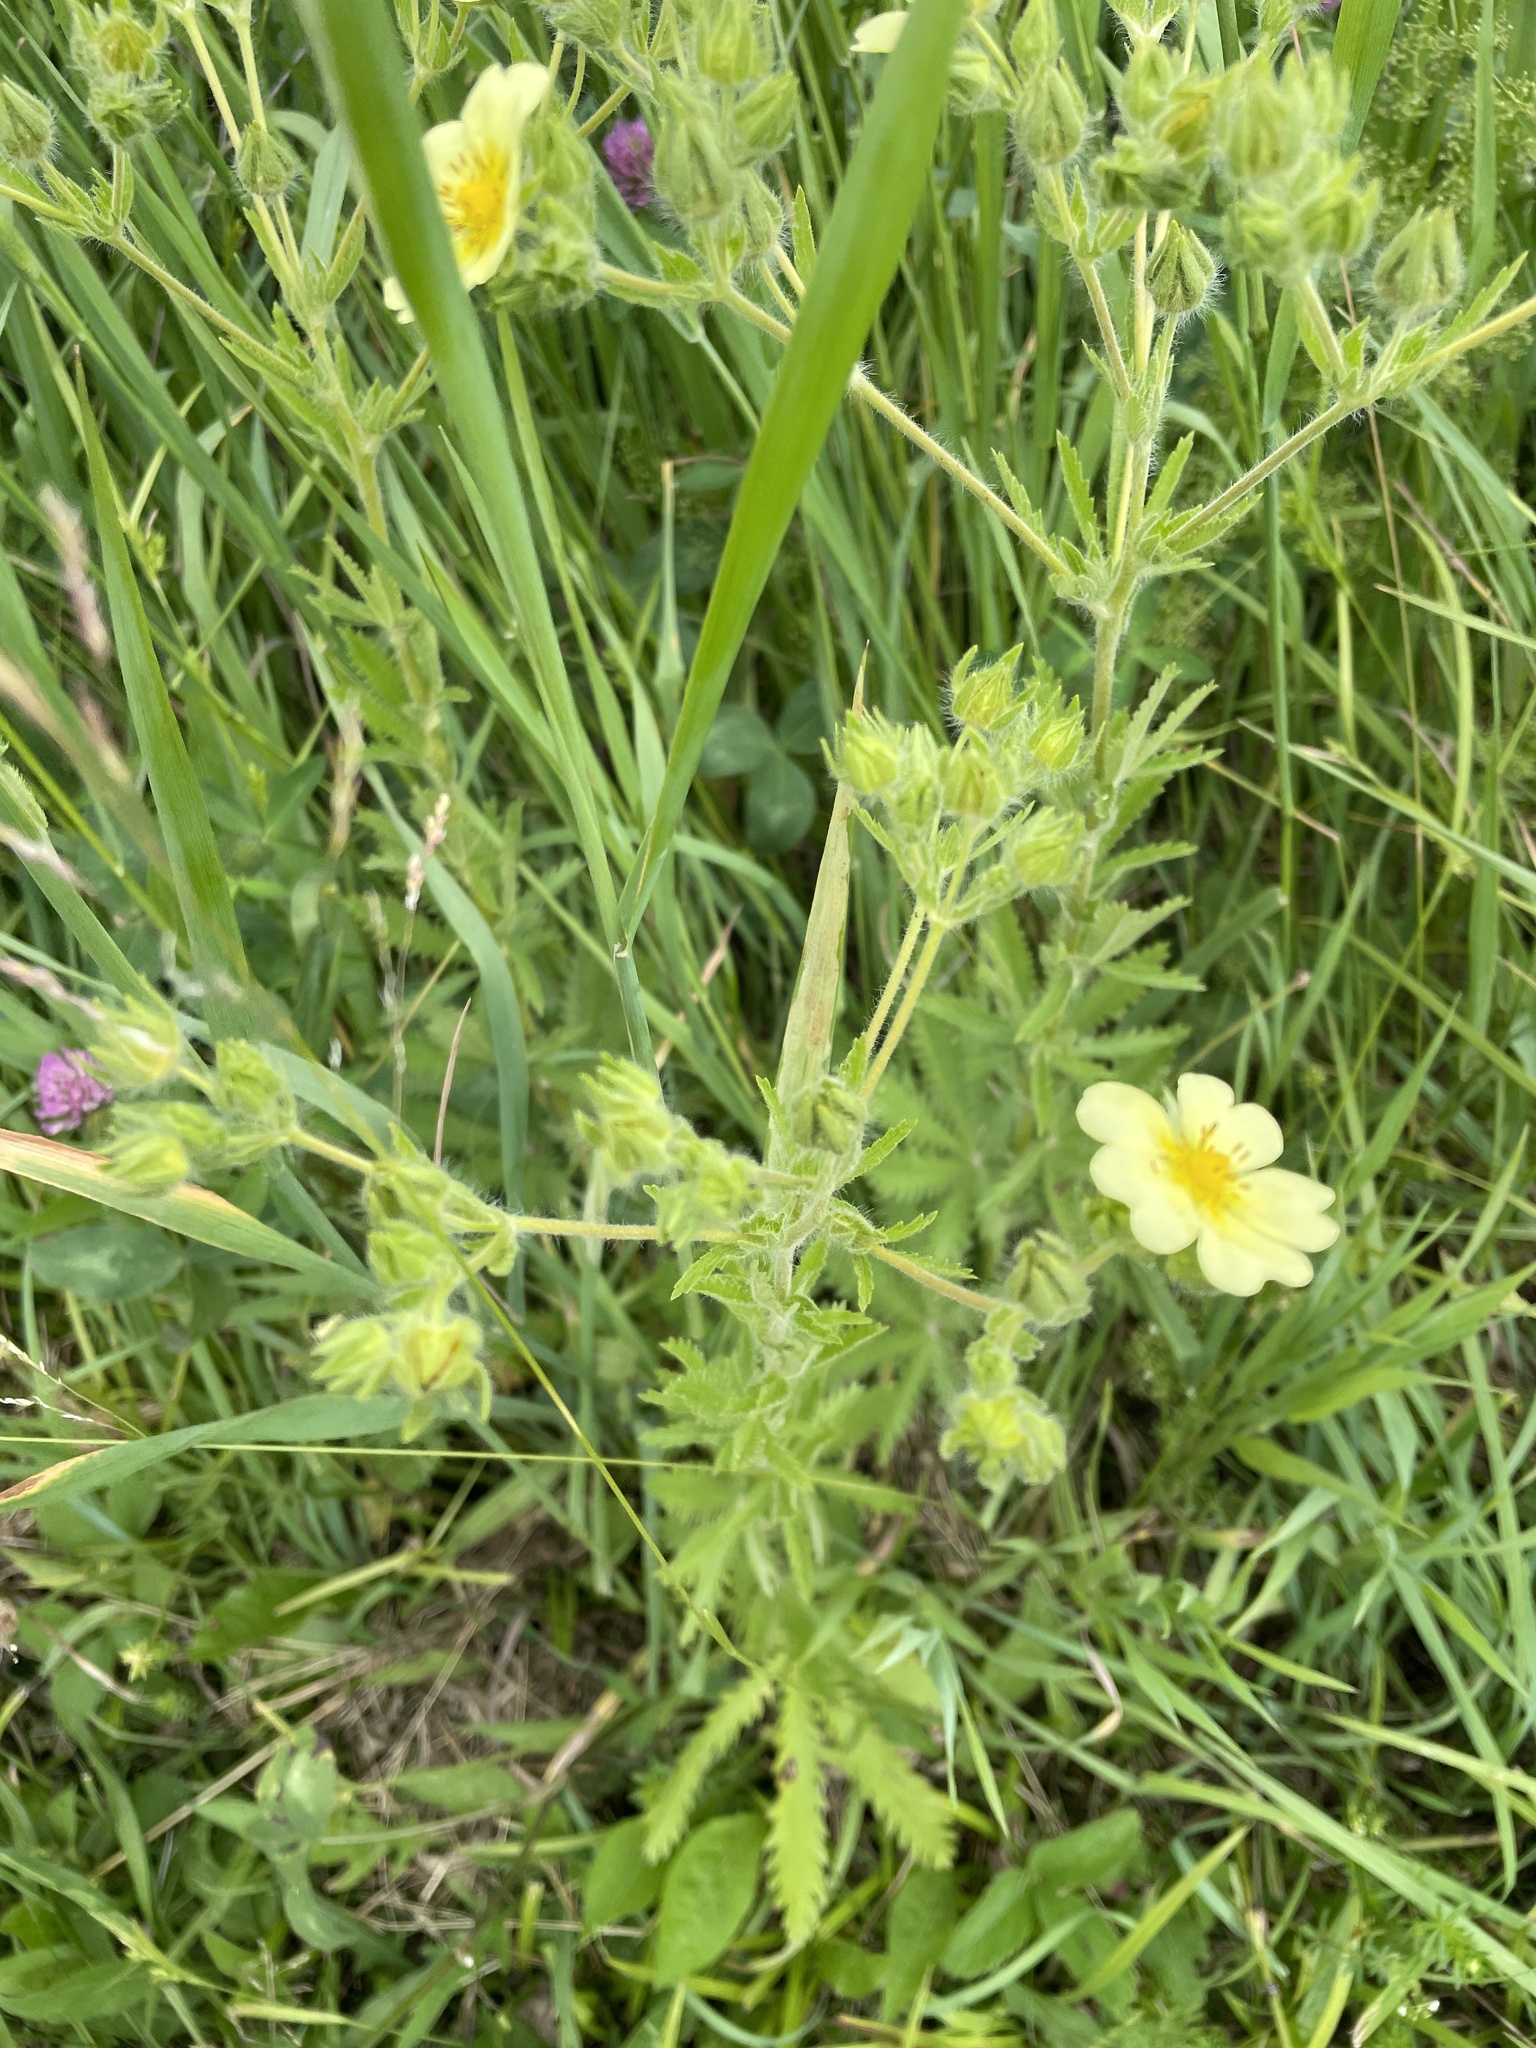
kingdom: Plantae
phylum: Tracheophyta
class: Magnoliopsida
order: Rosales
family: Rosaceae
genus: Potentilla
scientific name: Potentilla recta
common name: Sulphur cinquefoil
